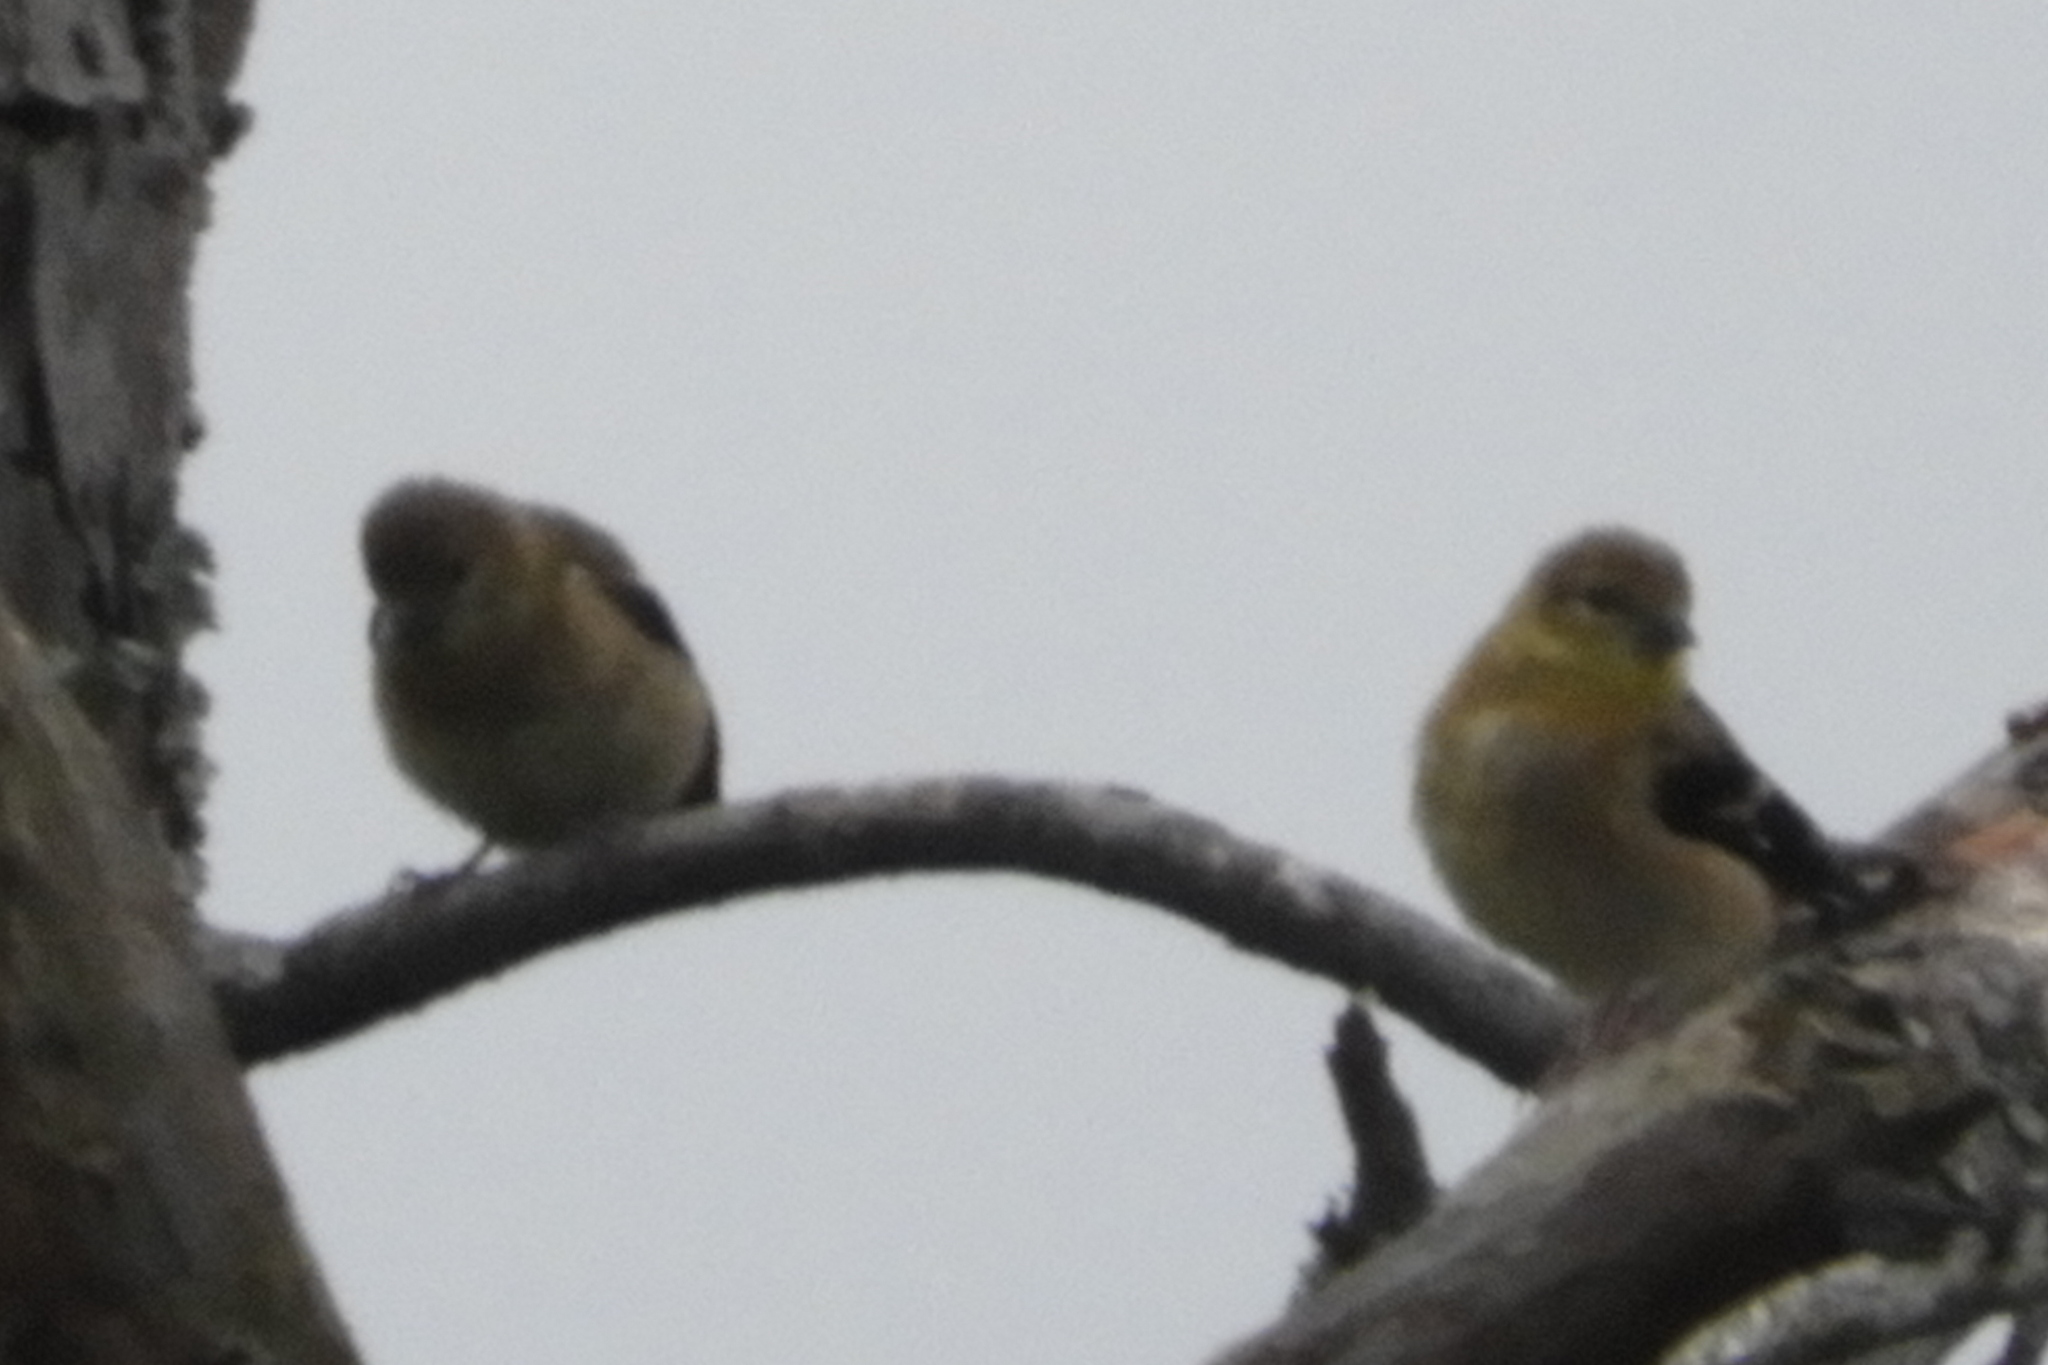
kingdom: Animalia
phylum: Chordata
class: Aves
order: Passeriformes
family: Fringillidae
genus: Spinus
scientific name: Spinus tristis
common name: American goldfinch
